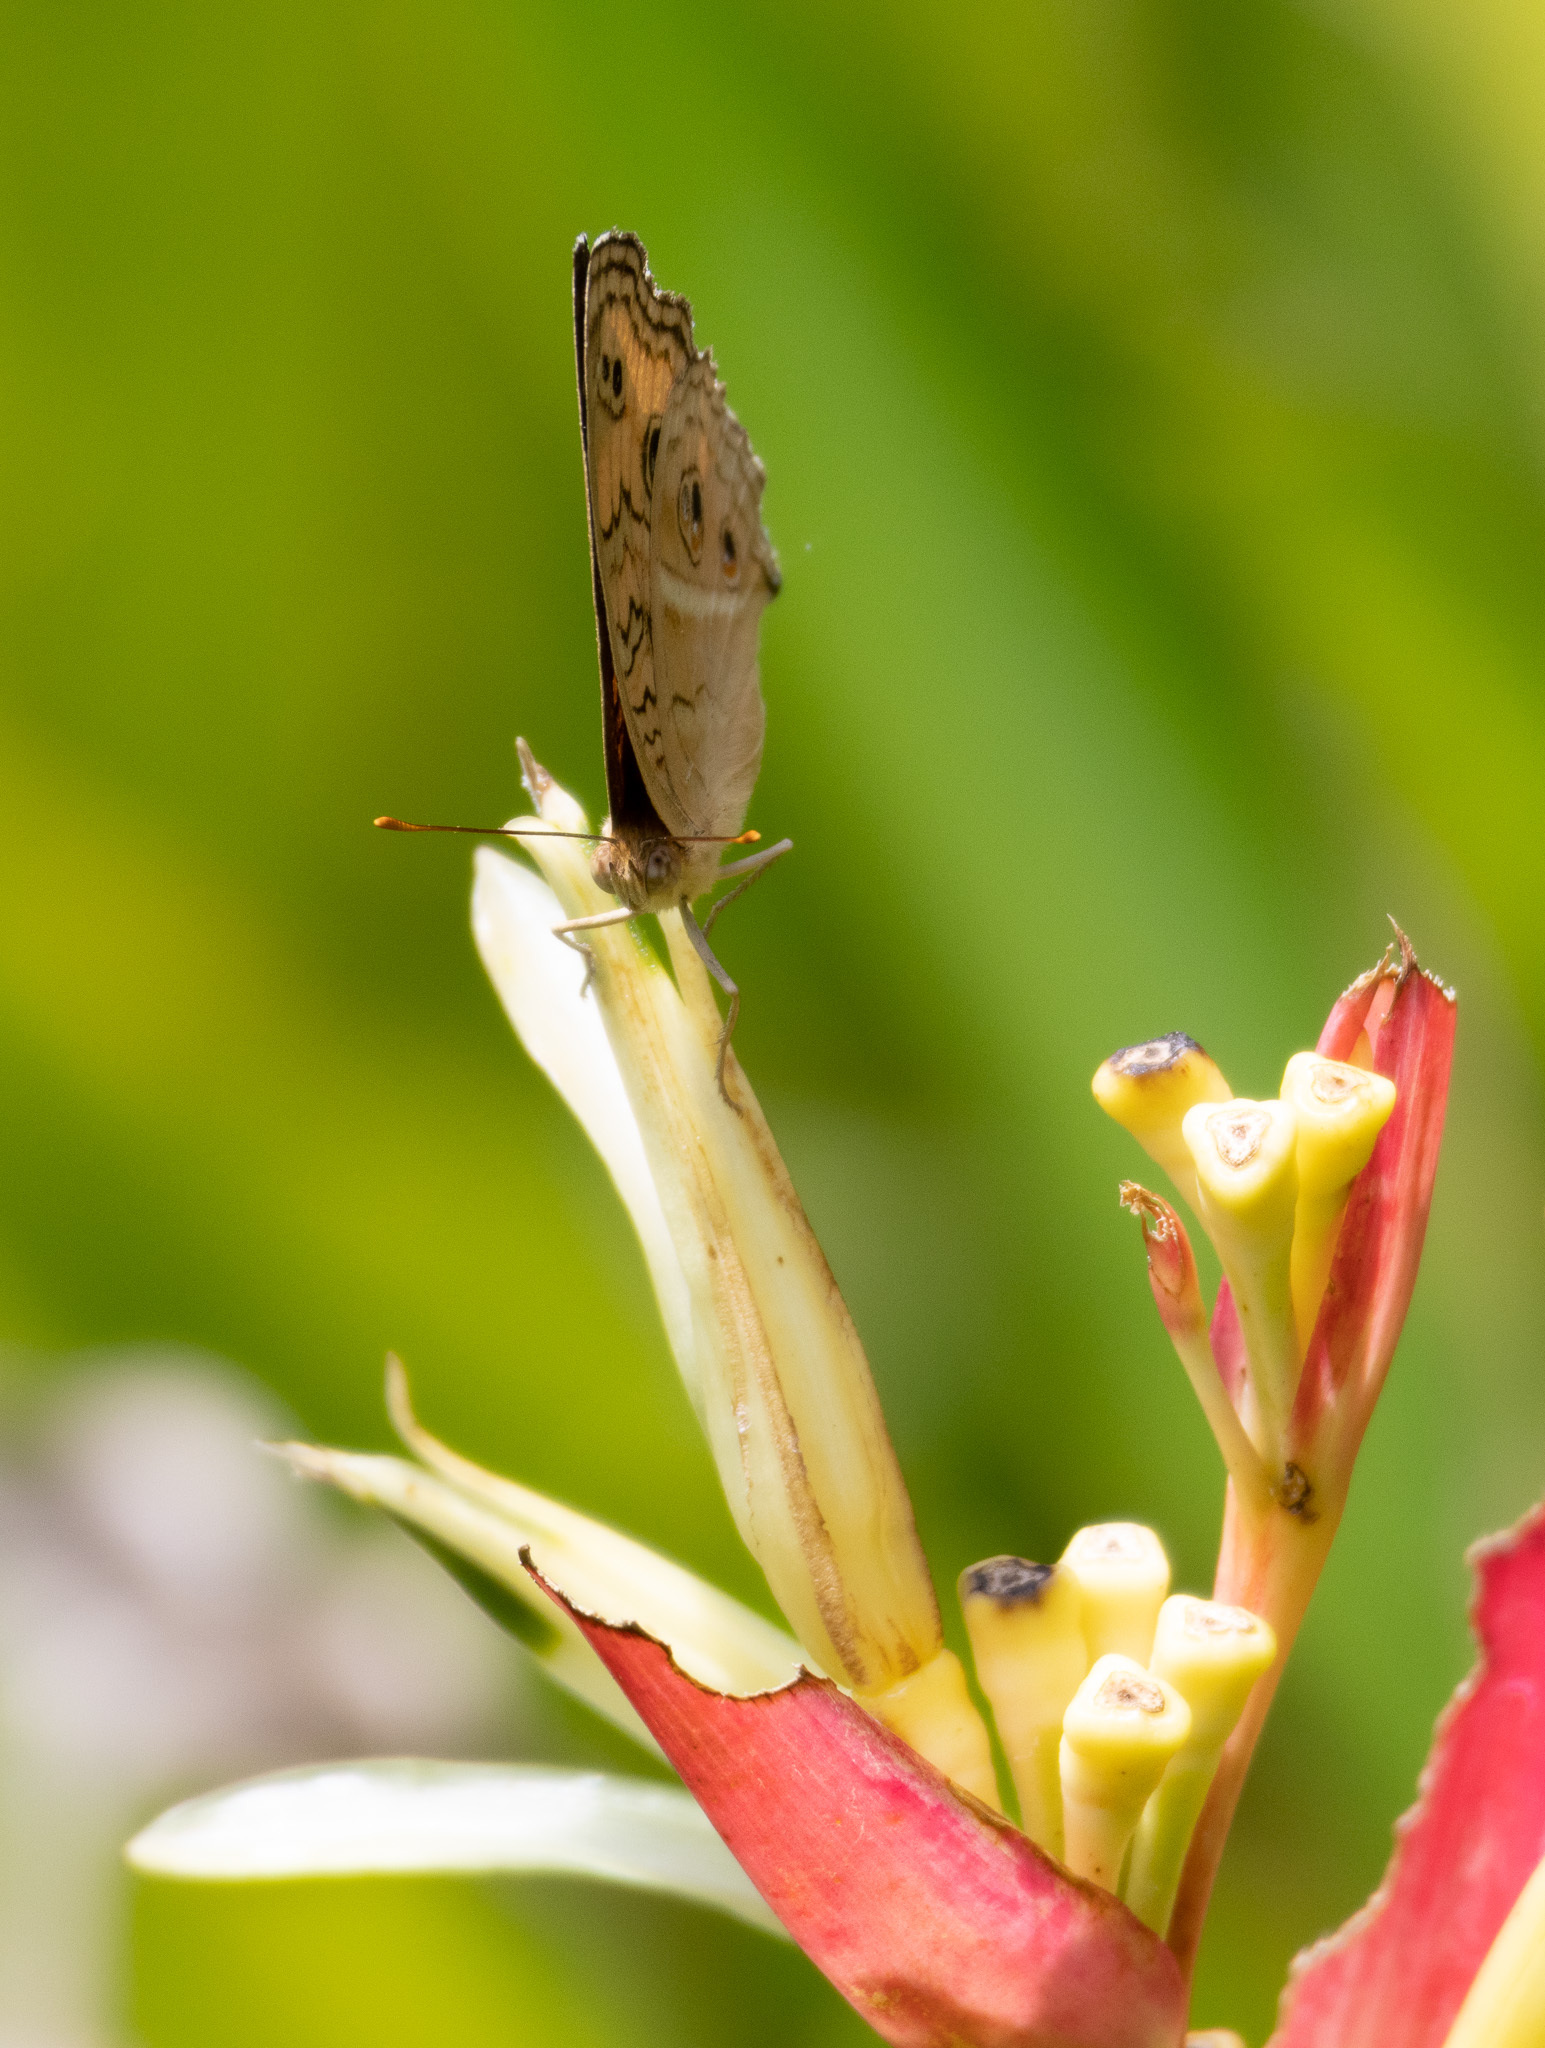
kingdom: Animalia
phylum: Arthropoda
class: Insecta
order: Lepidoptera
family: Nymphalidae
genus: Junonia
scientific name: Junonia almana
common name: Peacock pansy
